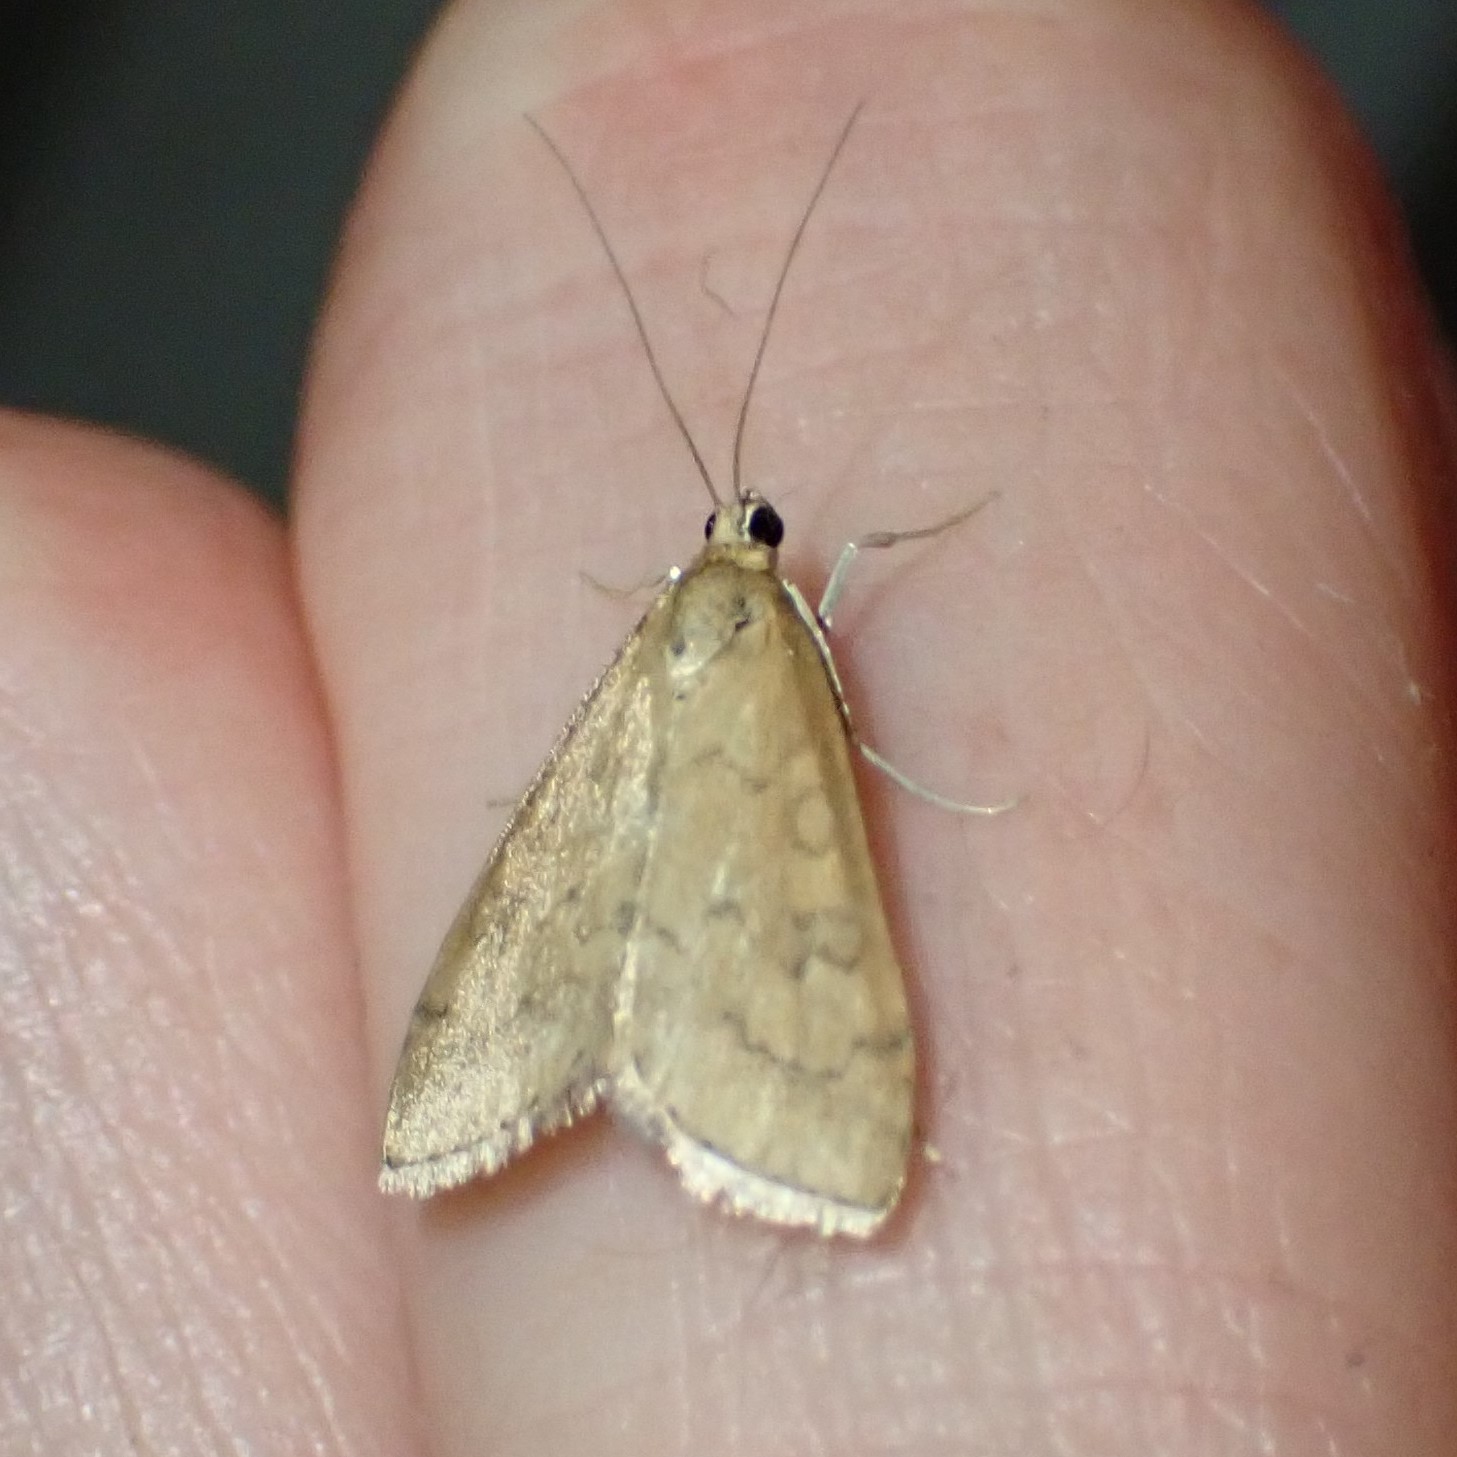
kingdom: Animalia
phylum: Arthropoda
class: Insecta
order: Lepidoptera
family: Crambidae
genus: Udea
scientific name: Udea rubigalis
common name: Celery leaftier moth
